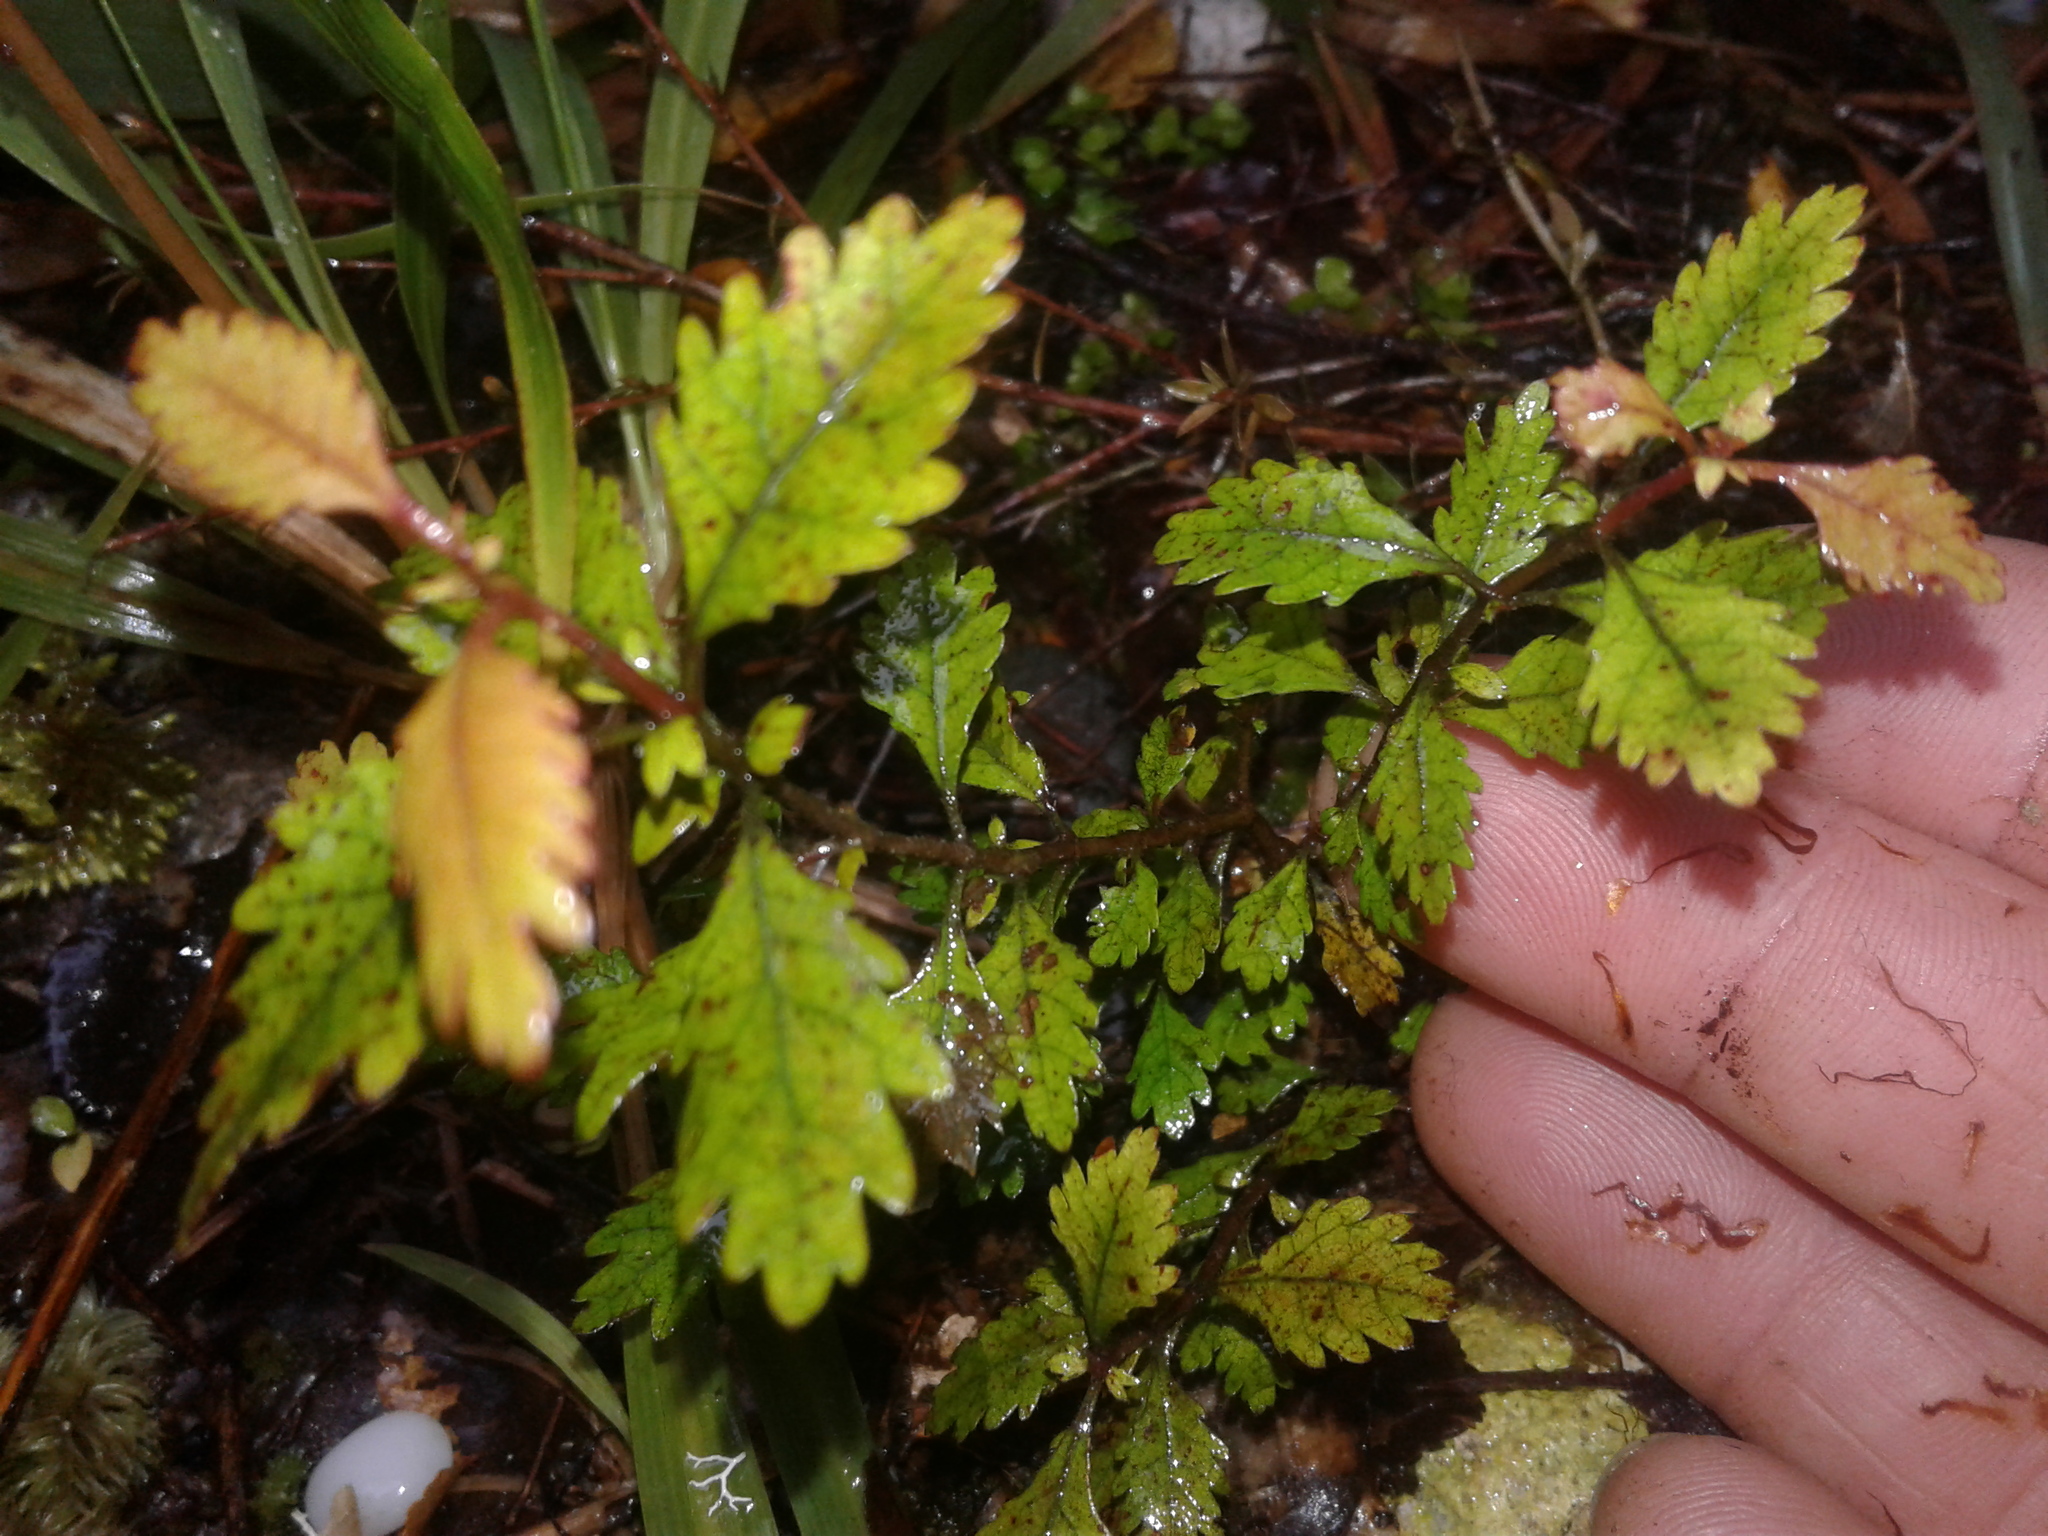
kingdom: Plantae
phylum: Tracheophyta
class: Magnoliopsida
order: Oxalidales
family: Cunoniaceae
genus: Pterophylla
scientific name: Pterophylla racemosa
